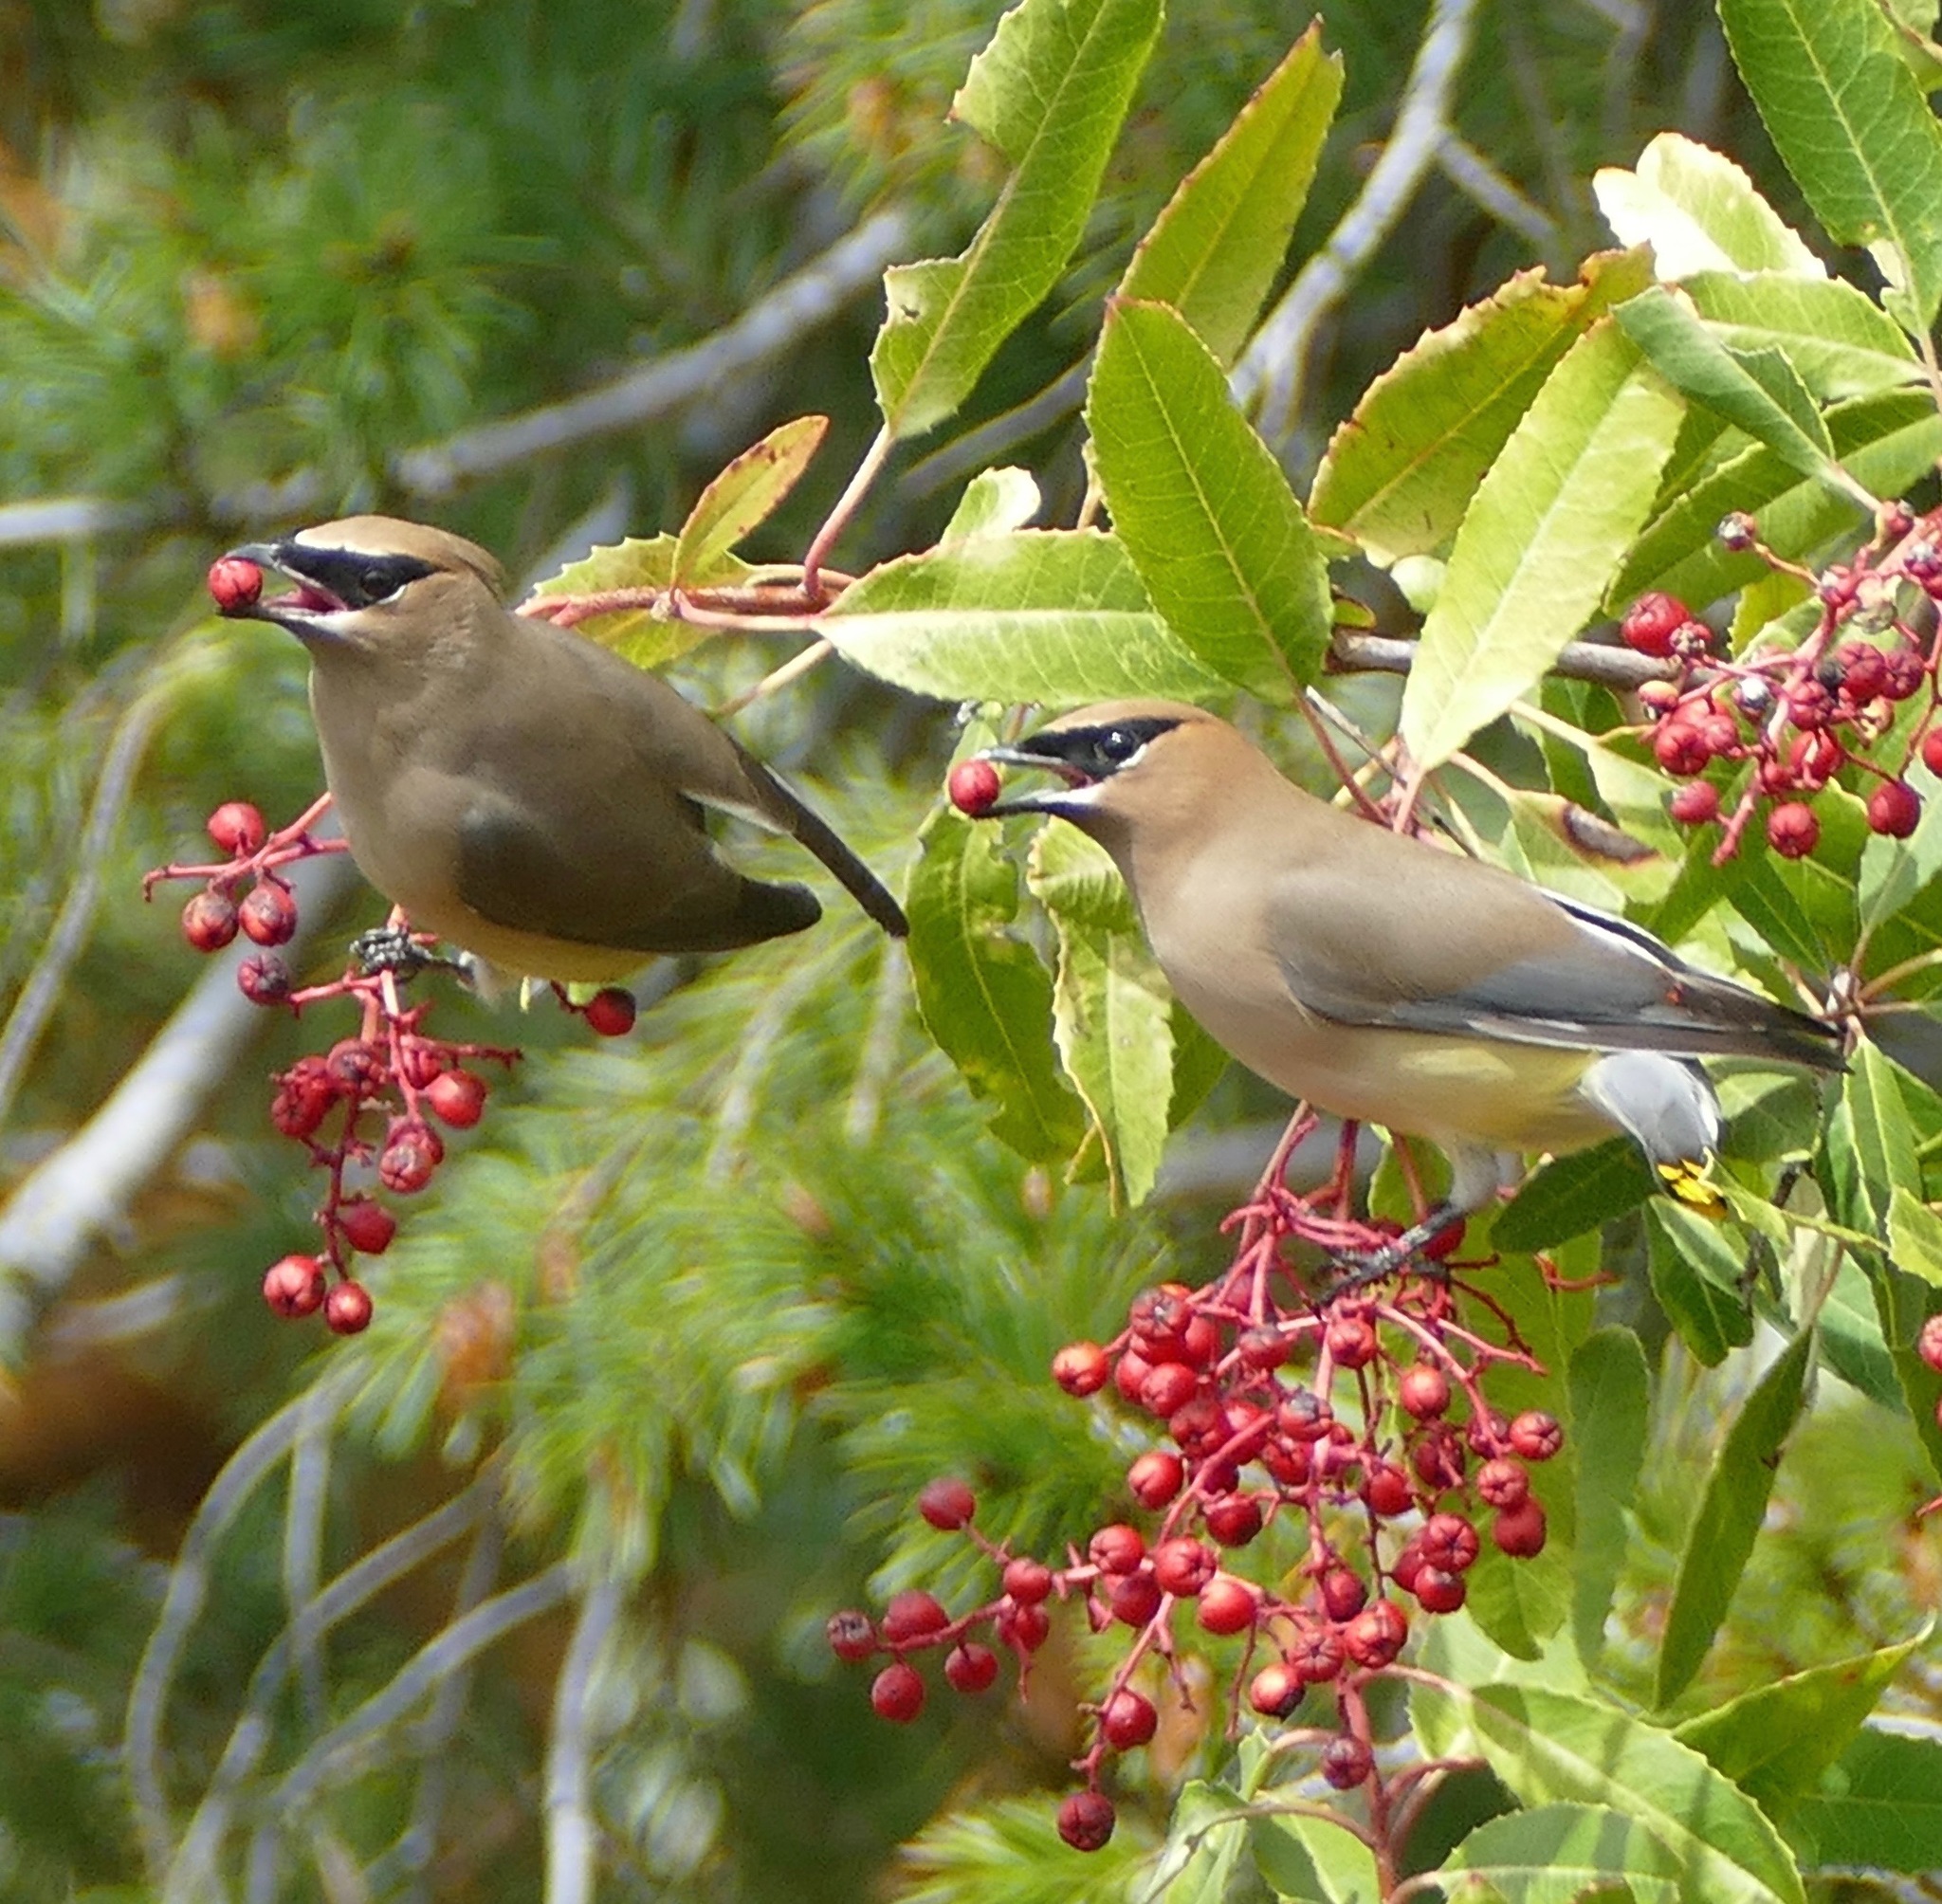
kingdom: Animalia
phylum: Chordata
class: Aves
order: Passeriformes
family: Bombycillidae
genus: Bombycilla
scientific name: Bombycilla cedrorum
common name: Cedar waxwing
